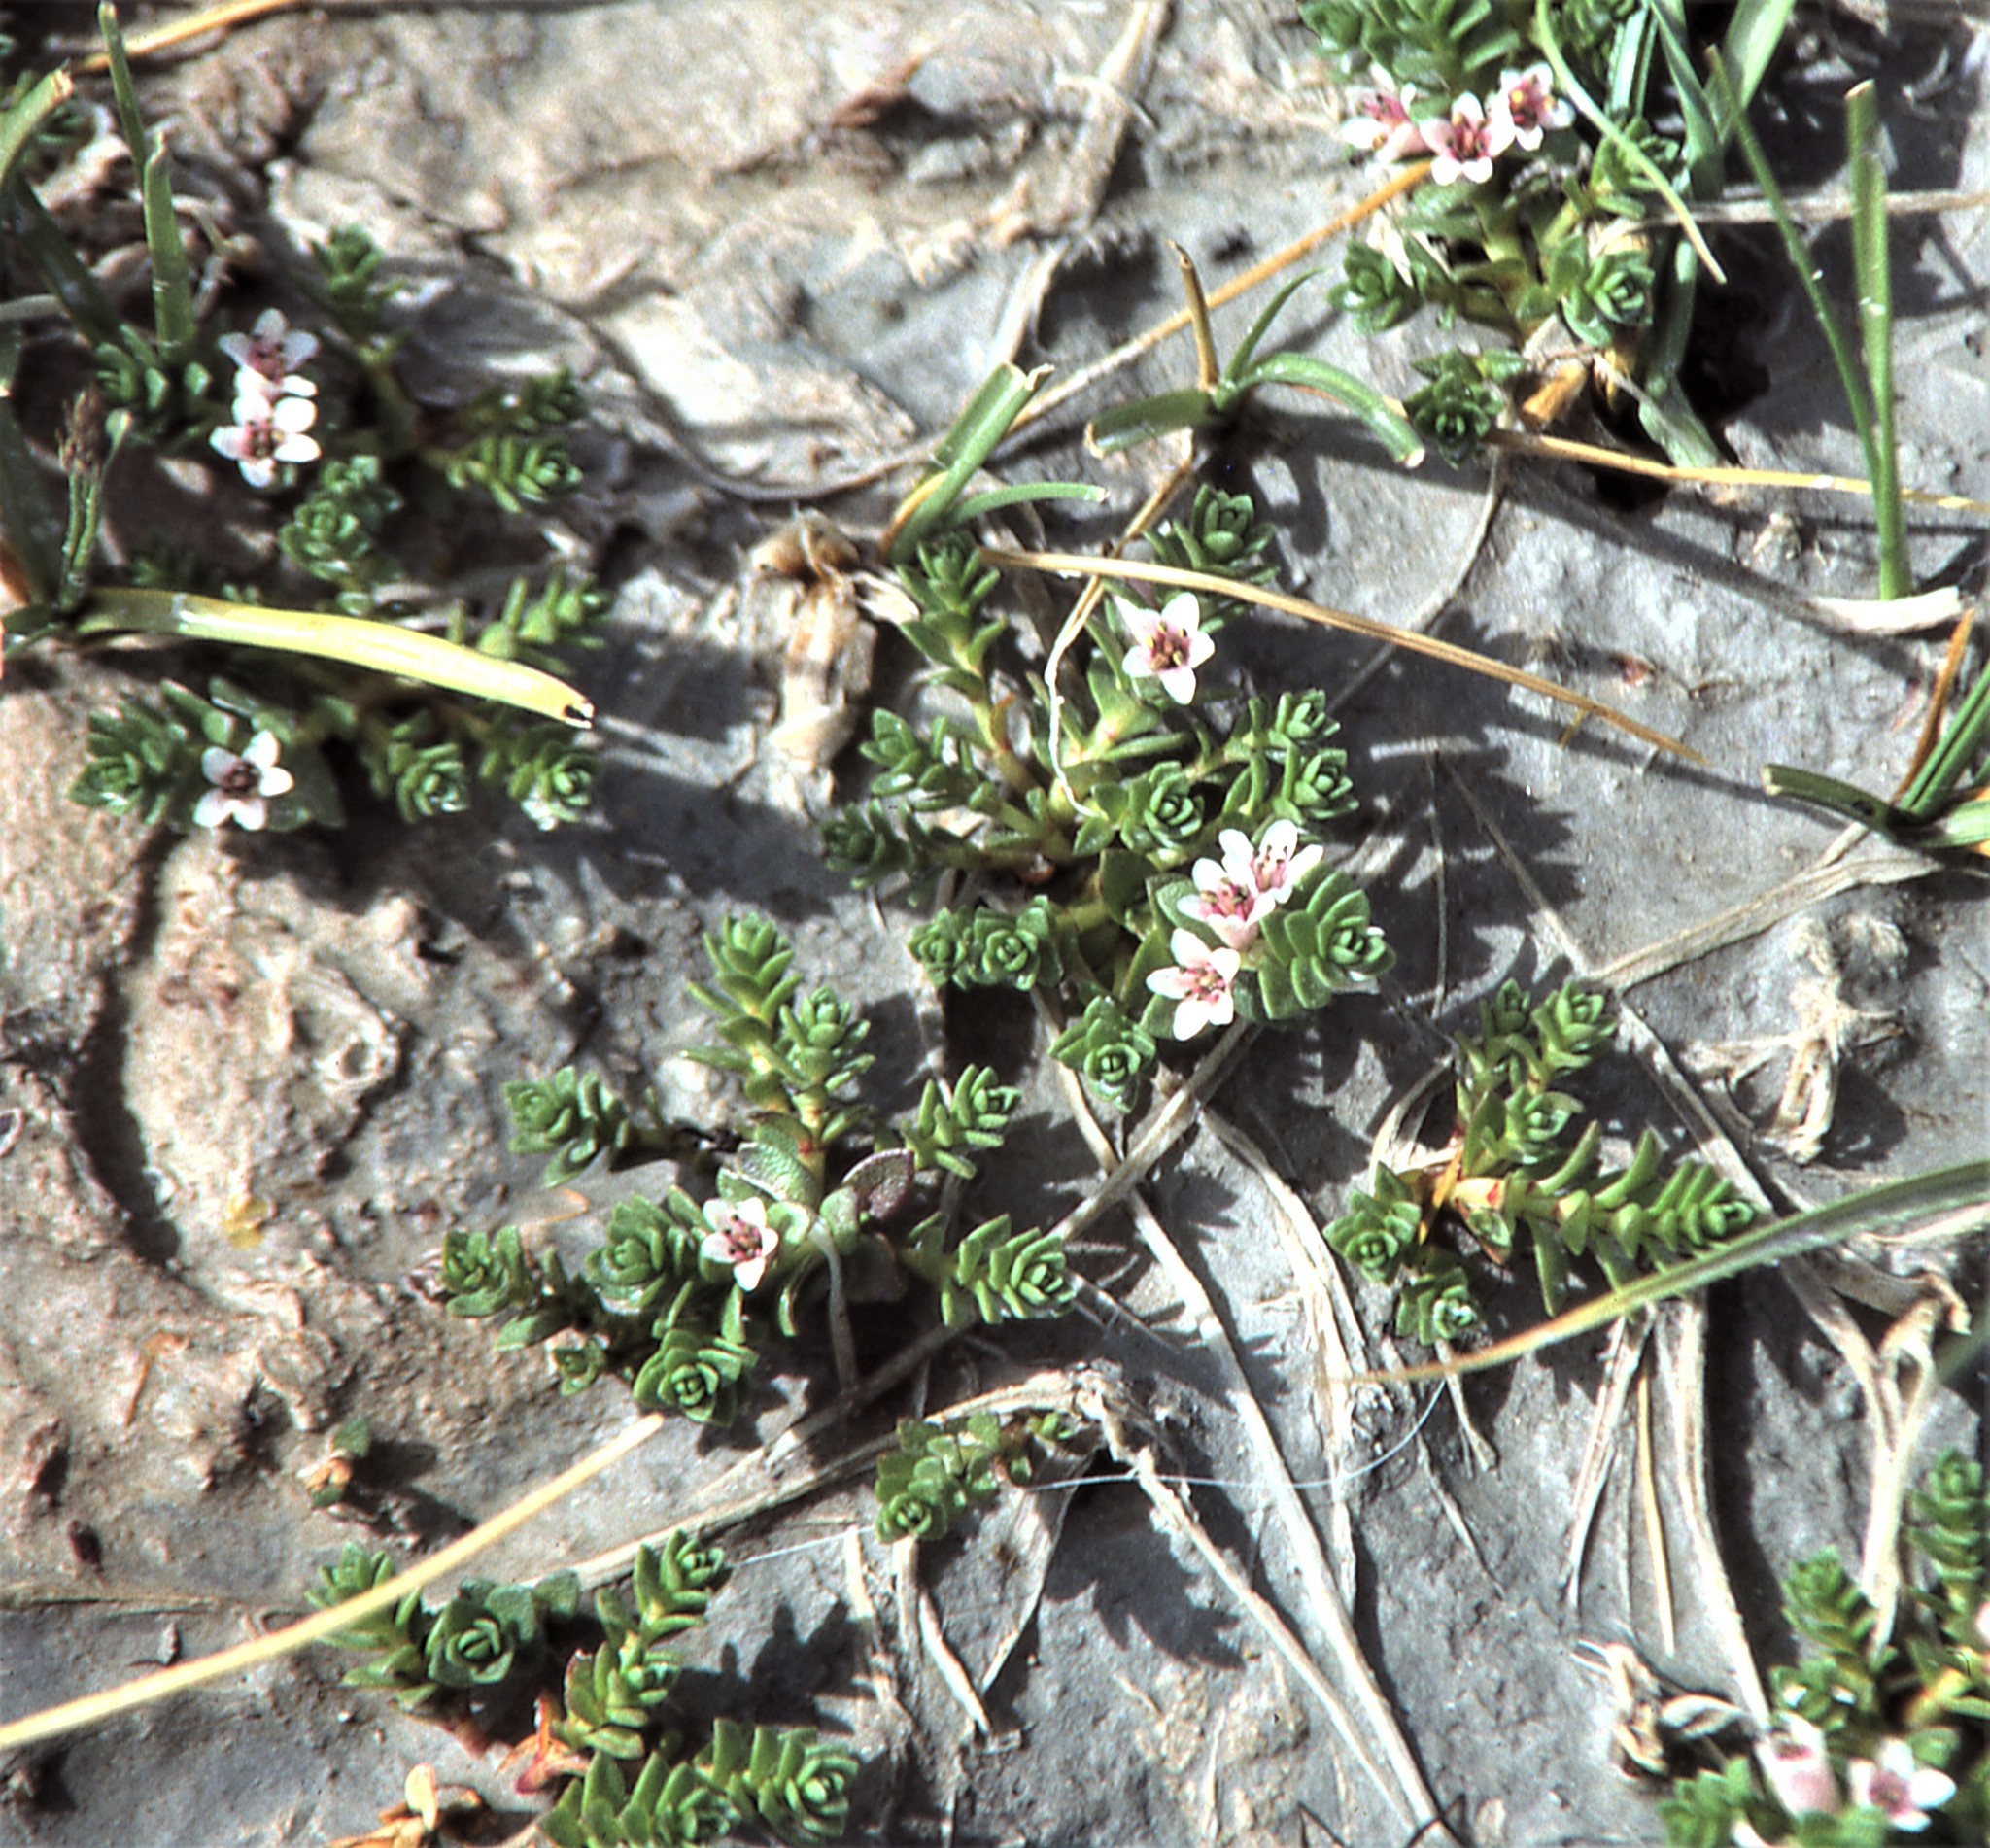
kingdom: Plantae
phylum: Tracheophyta
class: Magnoliopsida
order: Ericales
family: Primulaceae
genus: Lysimachia
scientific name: Lysimachia maritima
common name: Sea milkwort
